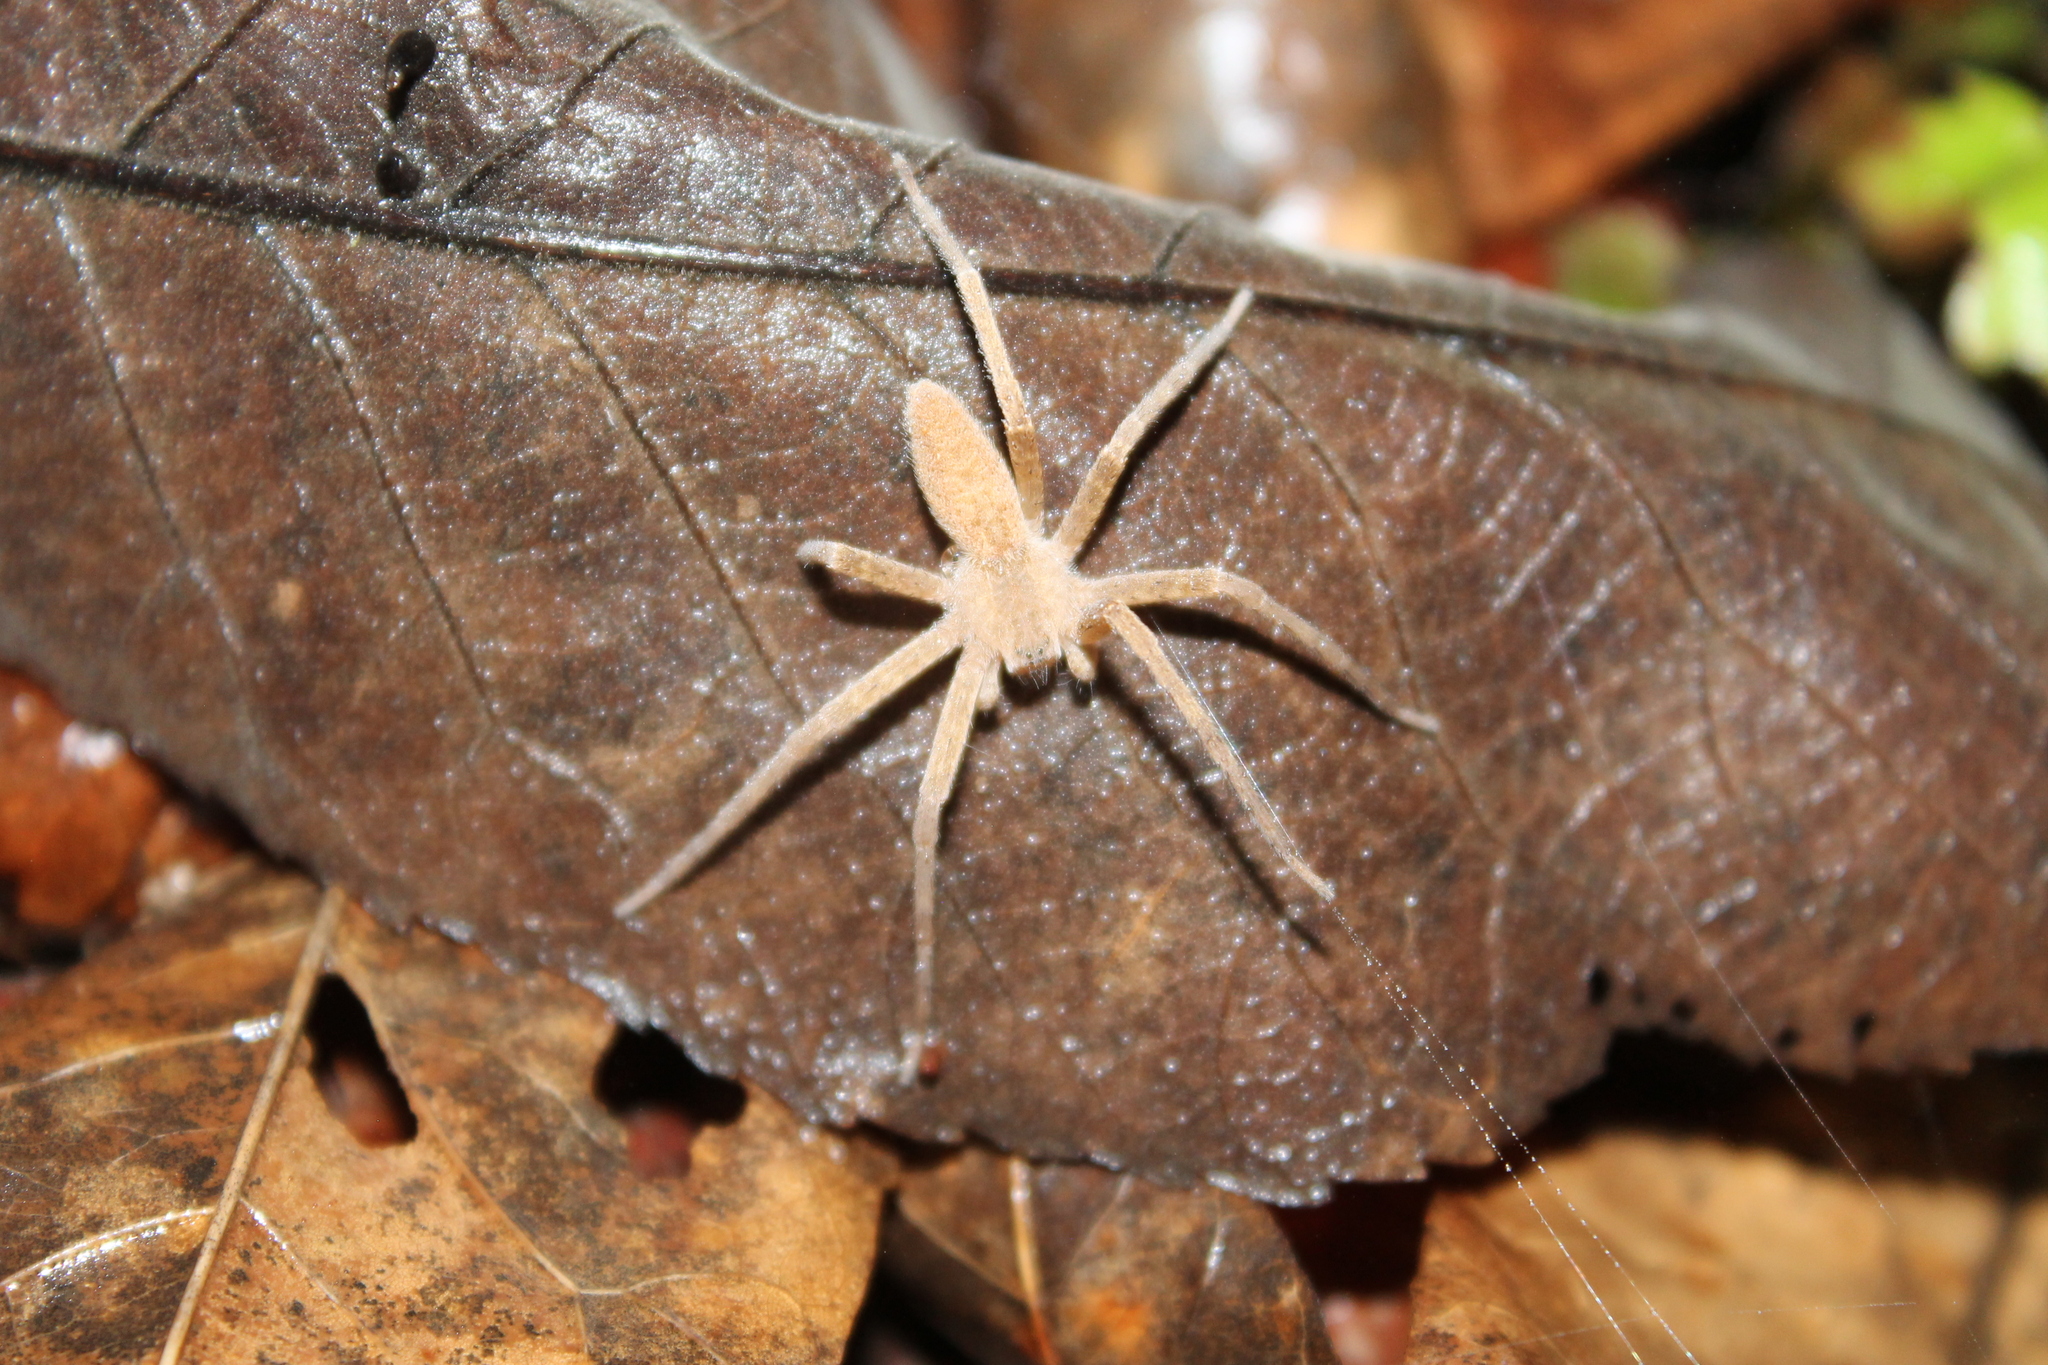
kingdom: Animalia
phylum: Arthropoda
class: Arachnida
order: Araneae
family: Pisauridae
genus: Pisaurina
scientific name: Pisaurina mira
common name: American nursery web spider
